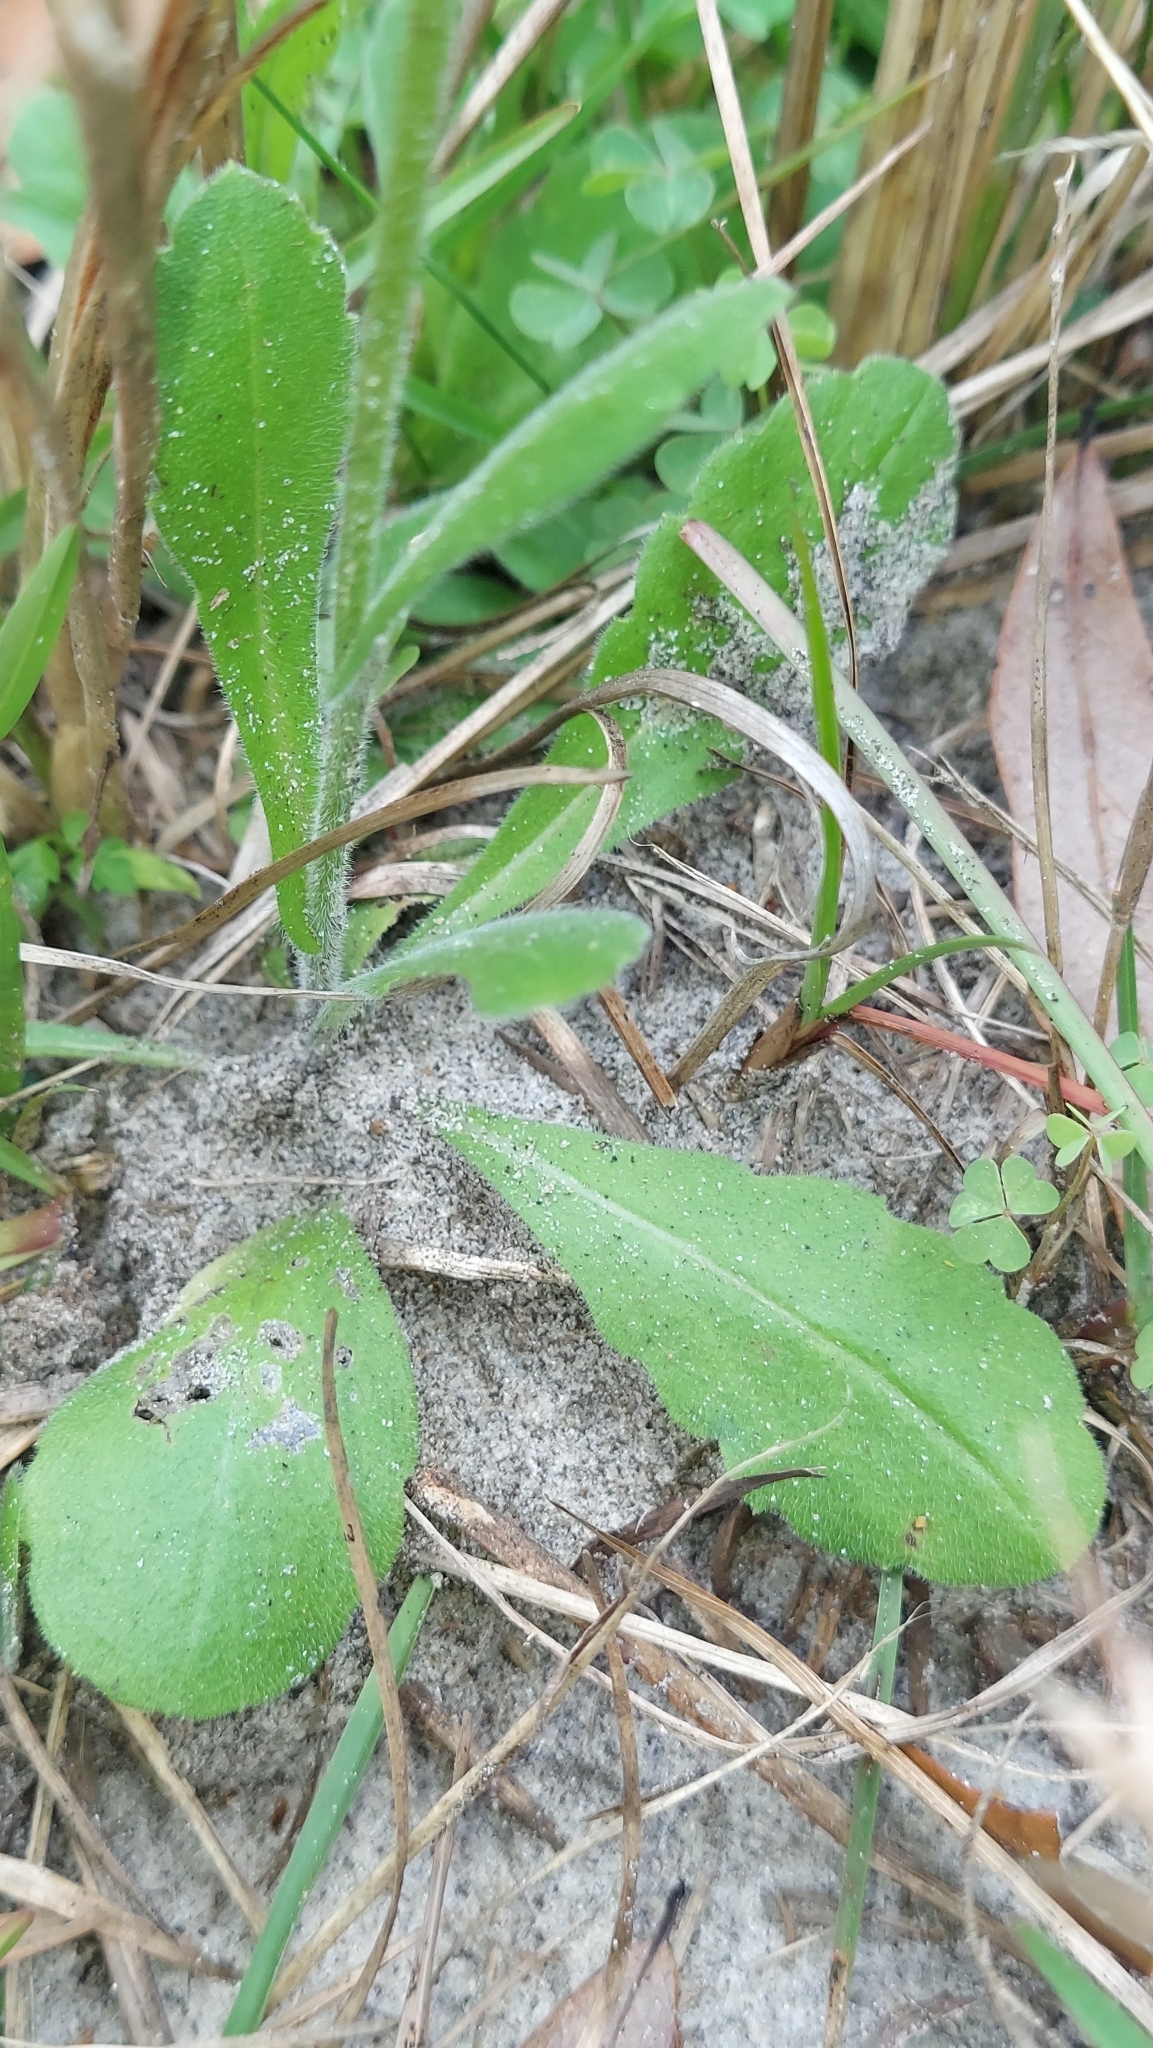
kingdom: Plantae
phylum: Tracheophyta
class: Magnoliopsida
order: Asterales
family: Asteraceae
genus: Erigeron
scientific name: Erigeron quercifolius
